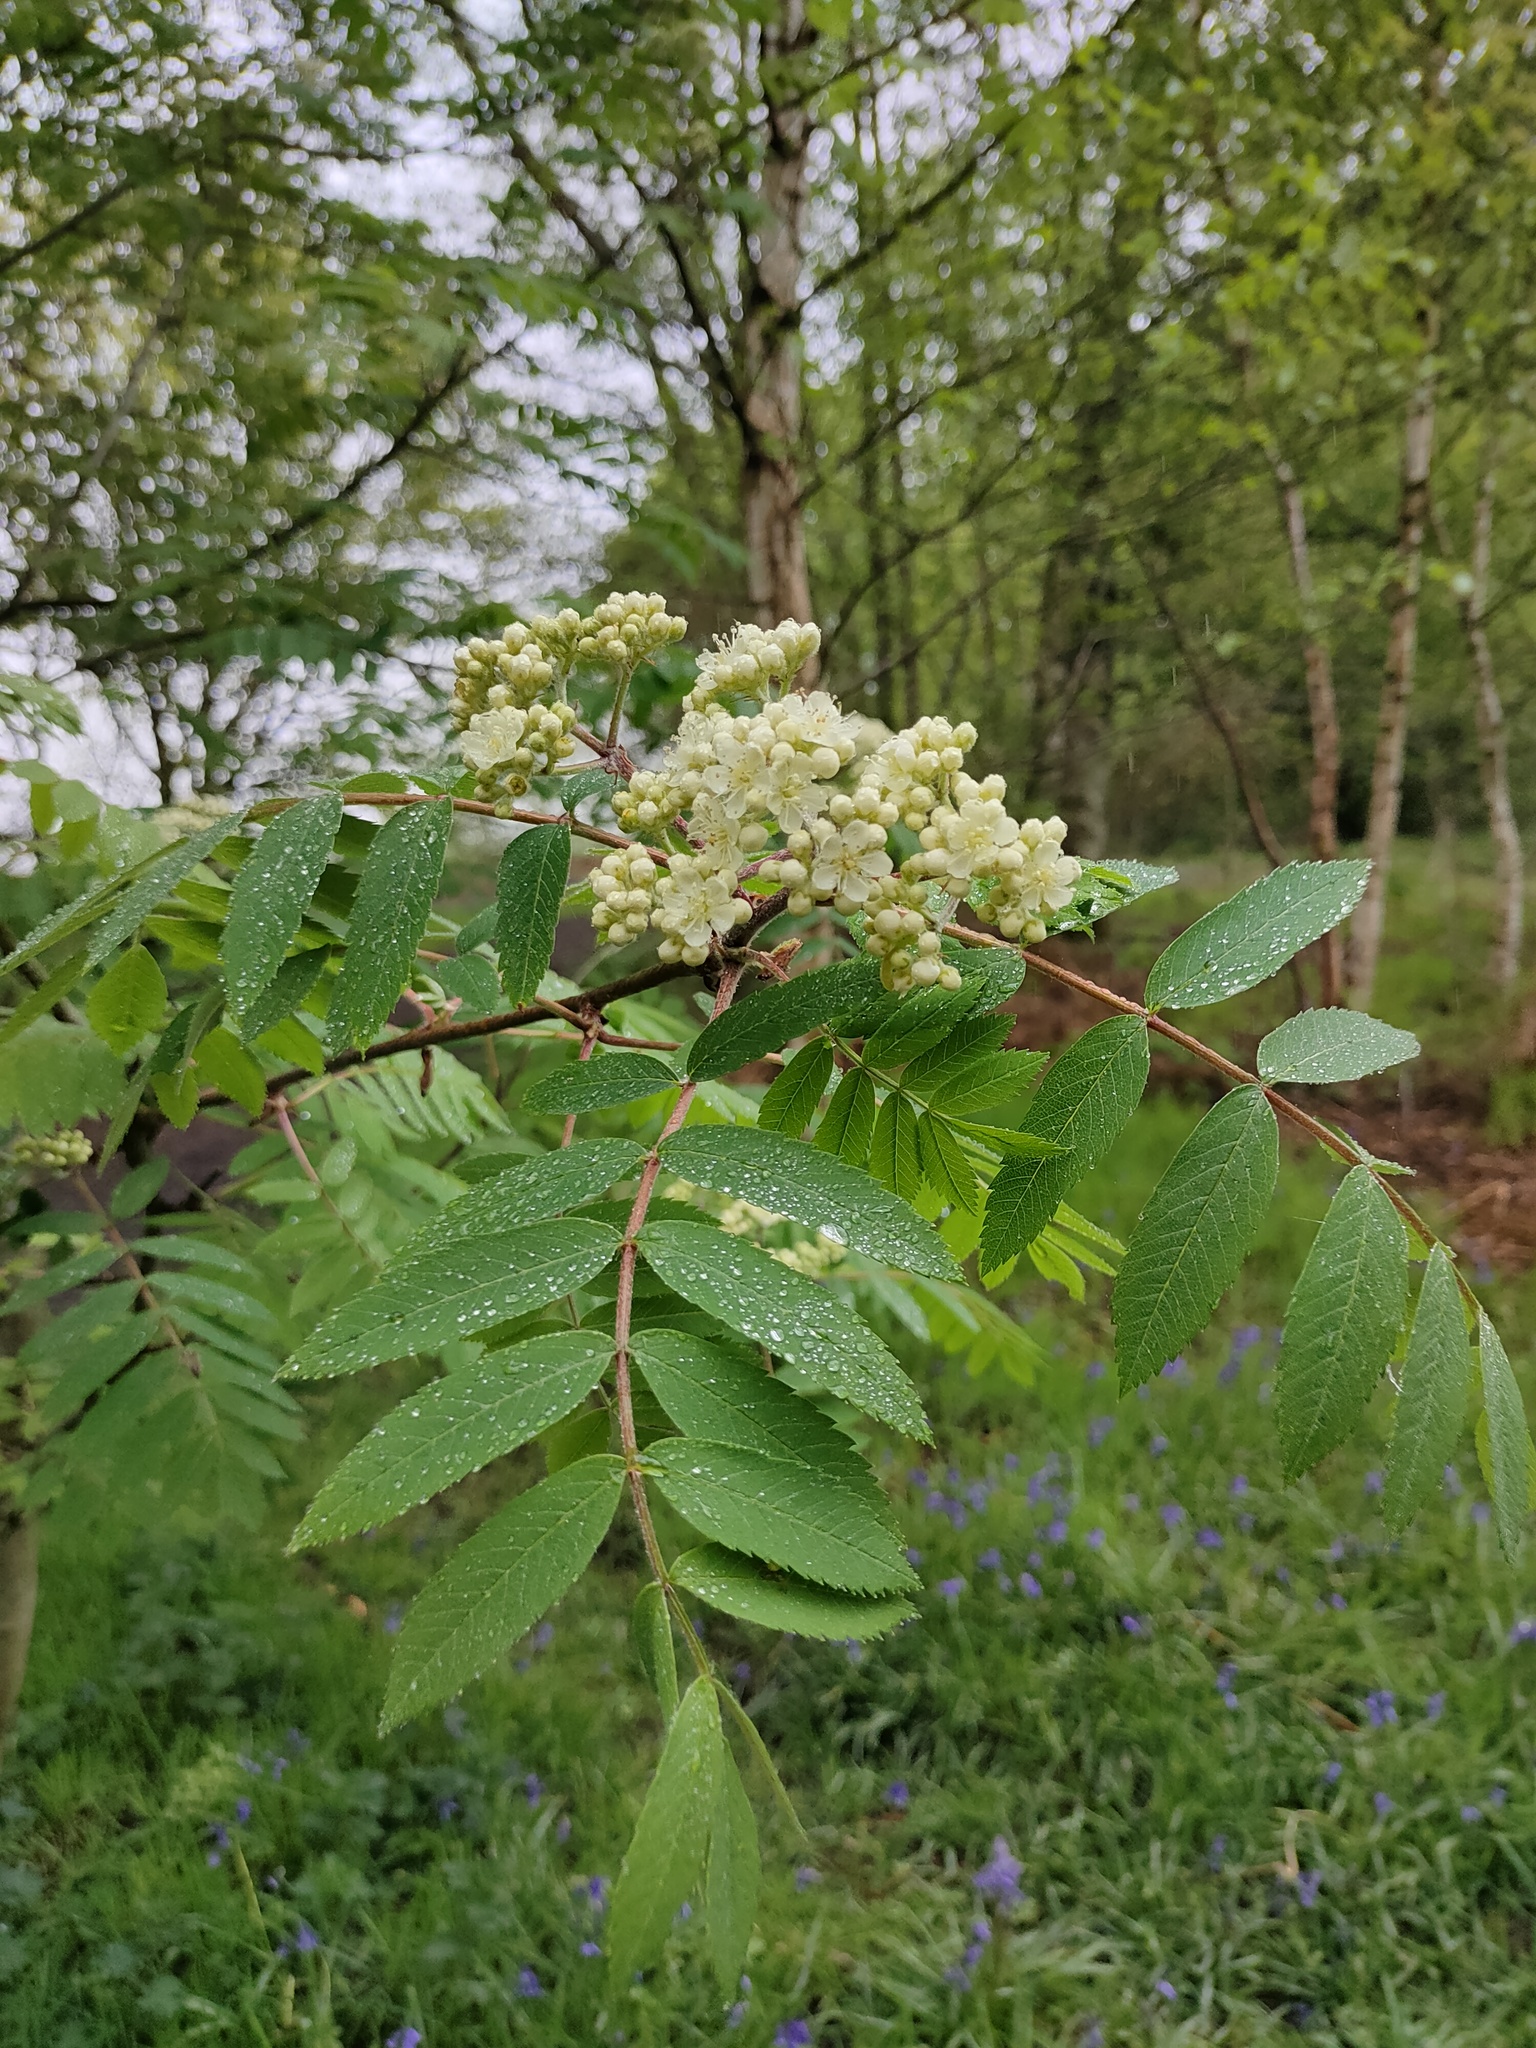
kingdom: Plantae
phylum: Tracheophyta
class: Magnoliopsida
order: Rosales
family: Rosaceae
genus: Sorbus
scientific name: Sorbus aucuparia
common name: Rowan
